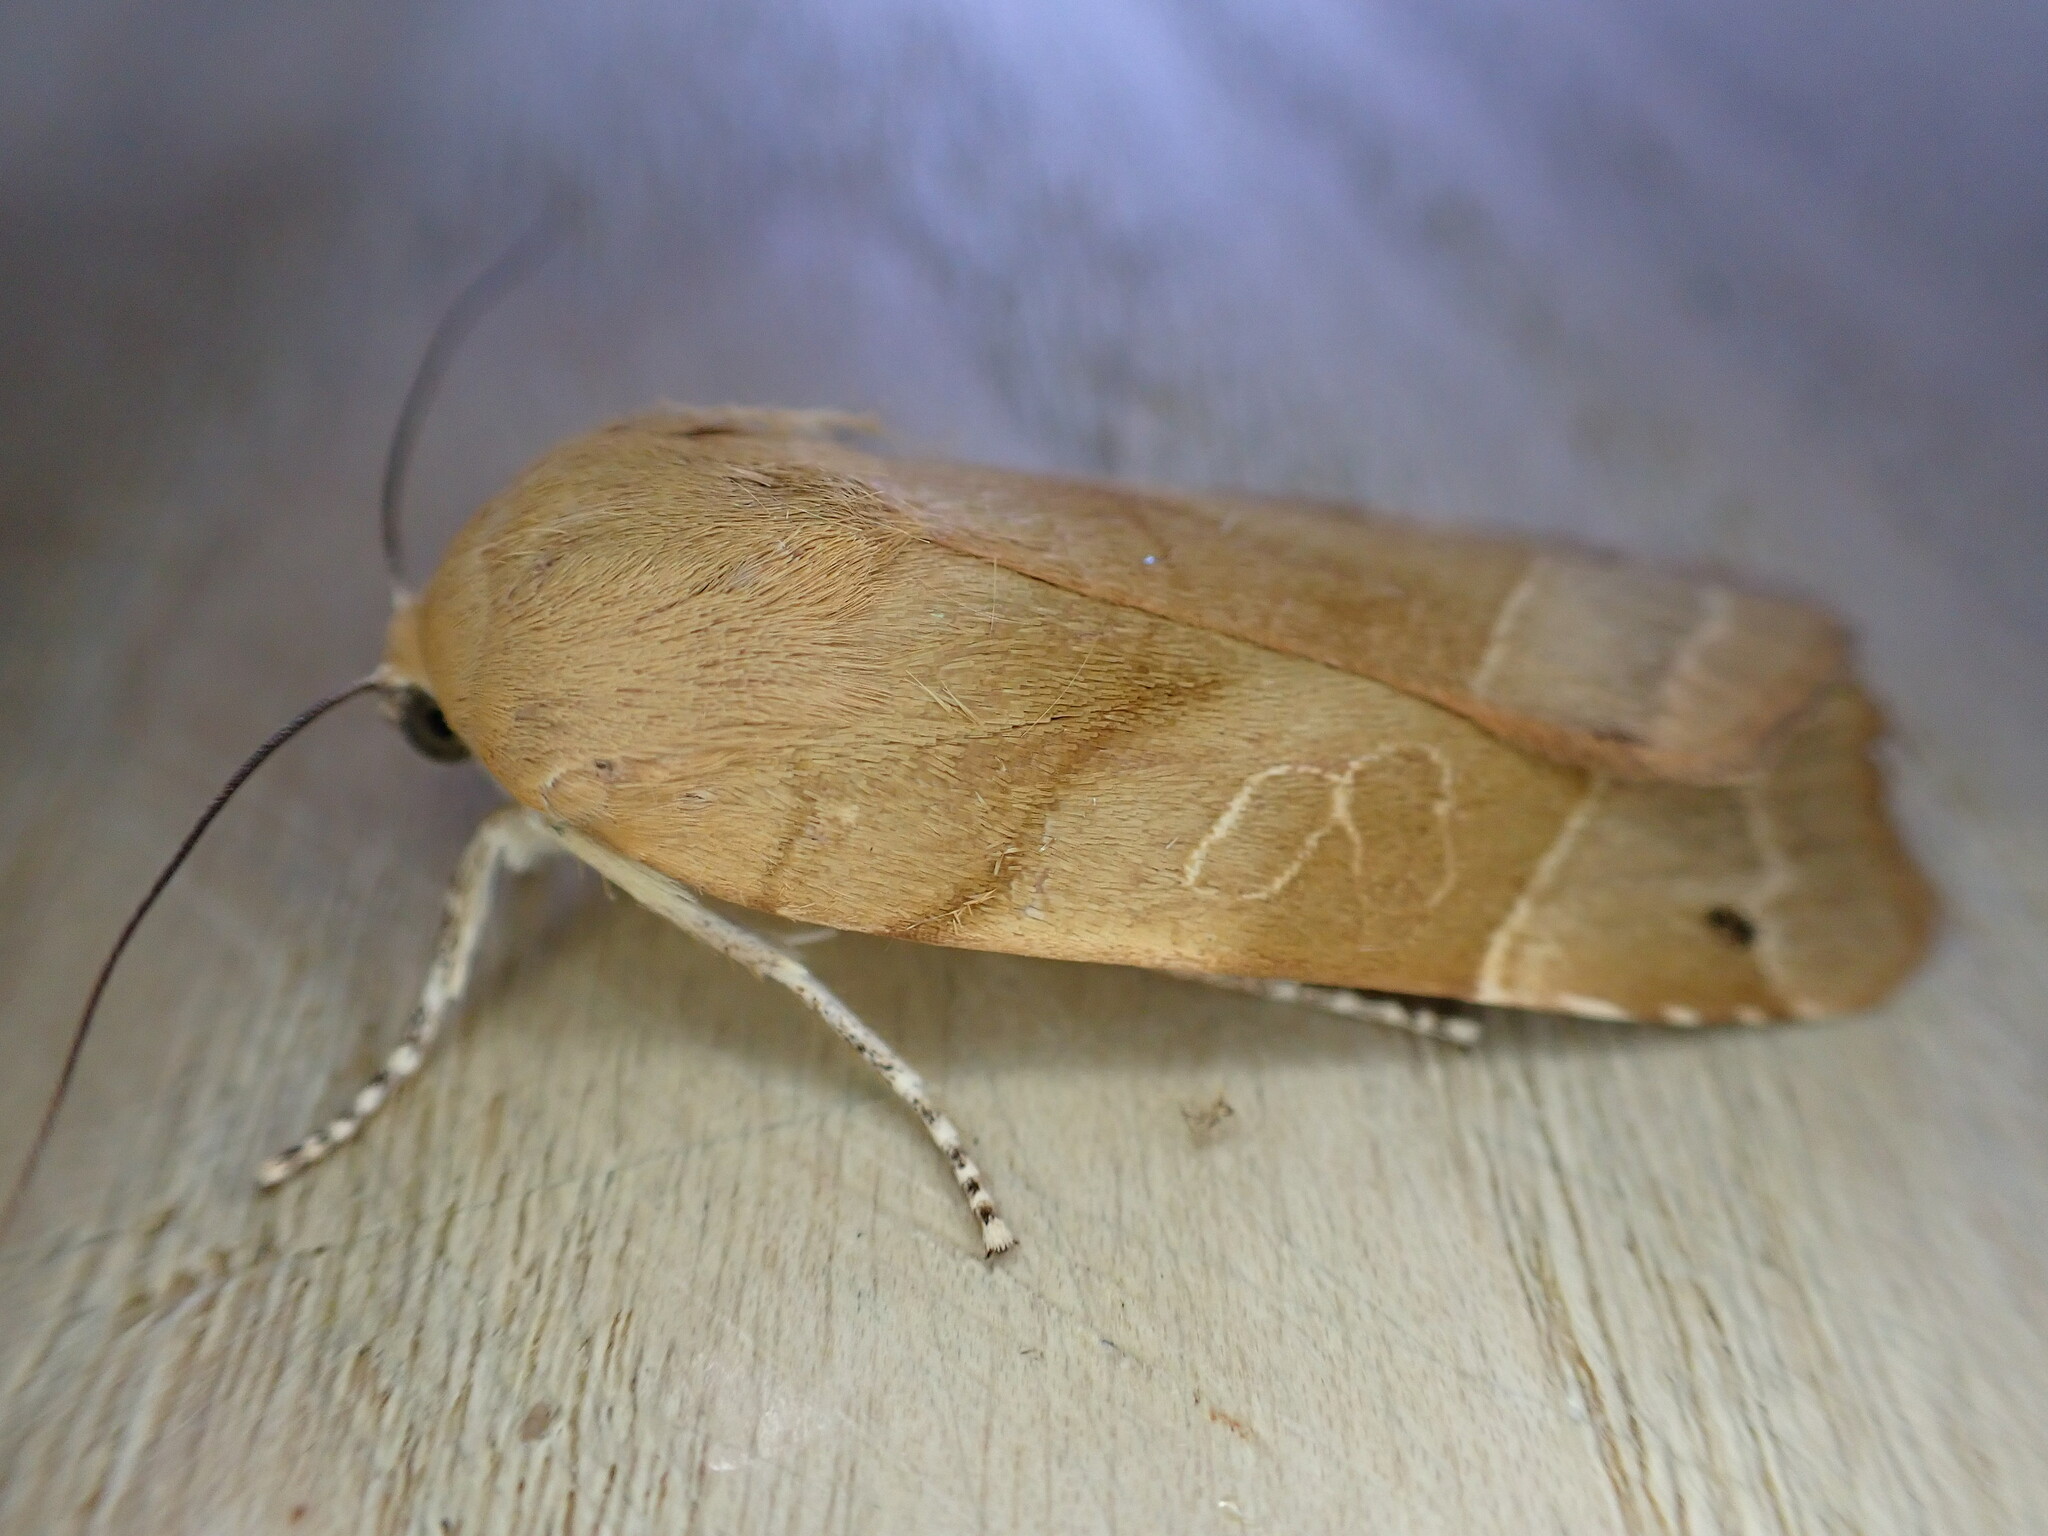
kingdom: Animalia
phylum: Arthropoda
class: Insecta
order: Lepidoptera
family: Noctuidae
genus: Noctua
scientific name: Noctua fimbriata
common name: Broad-bordered yellow underwing
